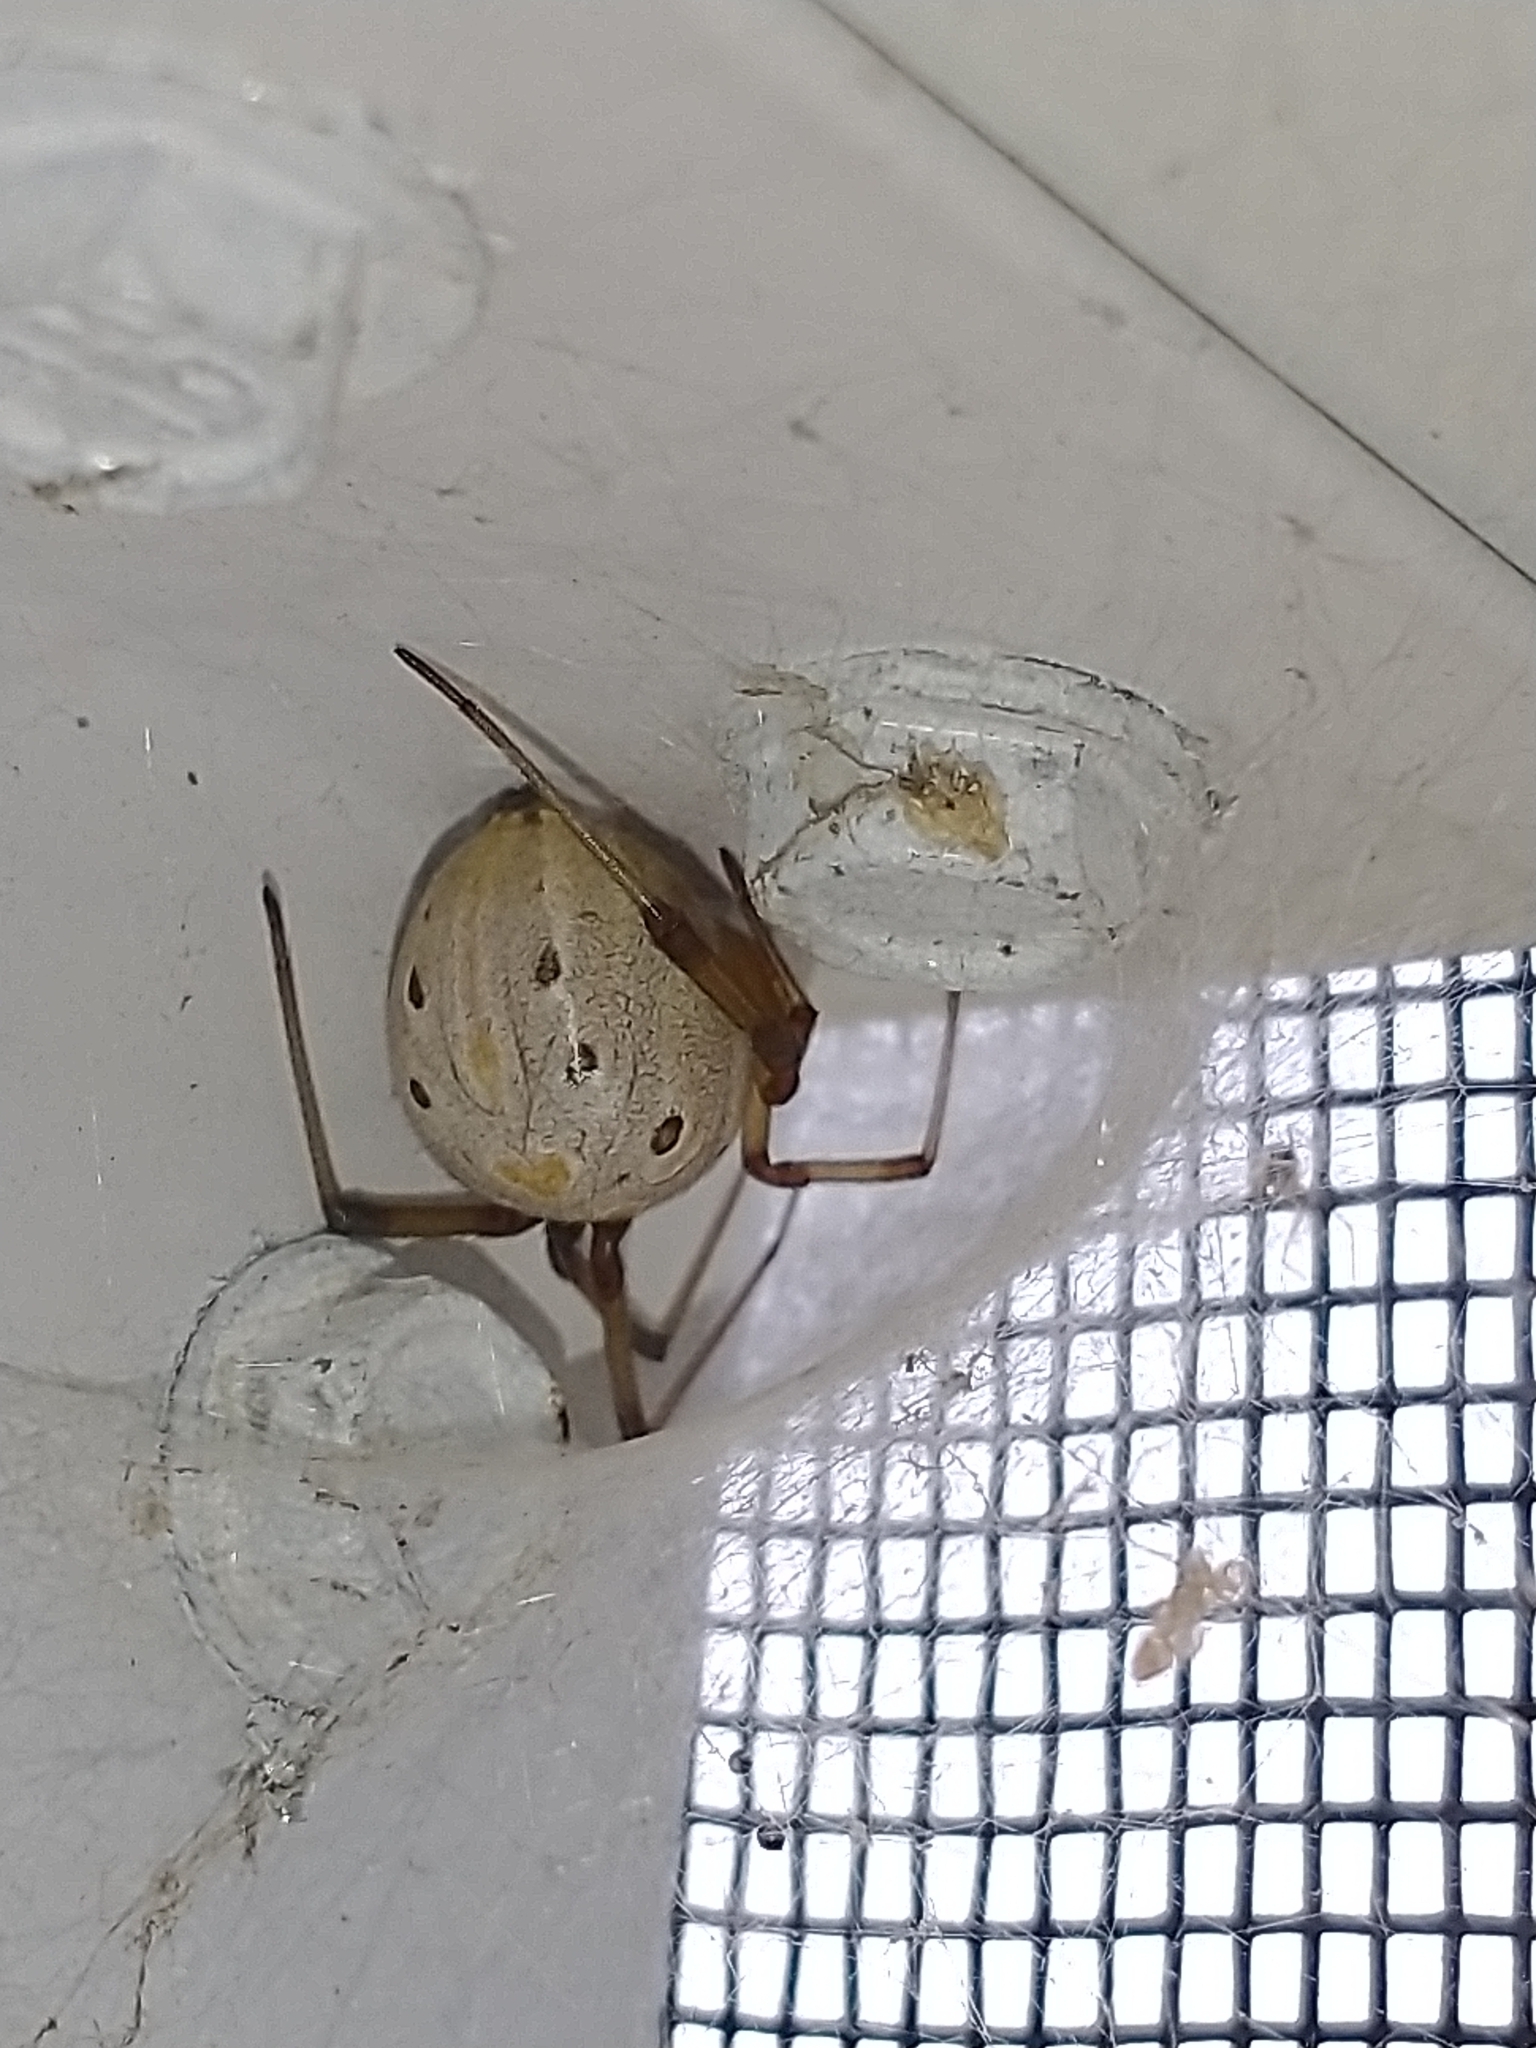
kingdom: Animalia
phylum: Arthropoda
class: Arachnida
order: Araneae
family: Theridiidae
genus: Latrodectus
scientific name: Latrodectus geometricus
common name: Brown widow spider
